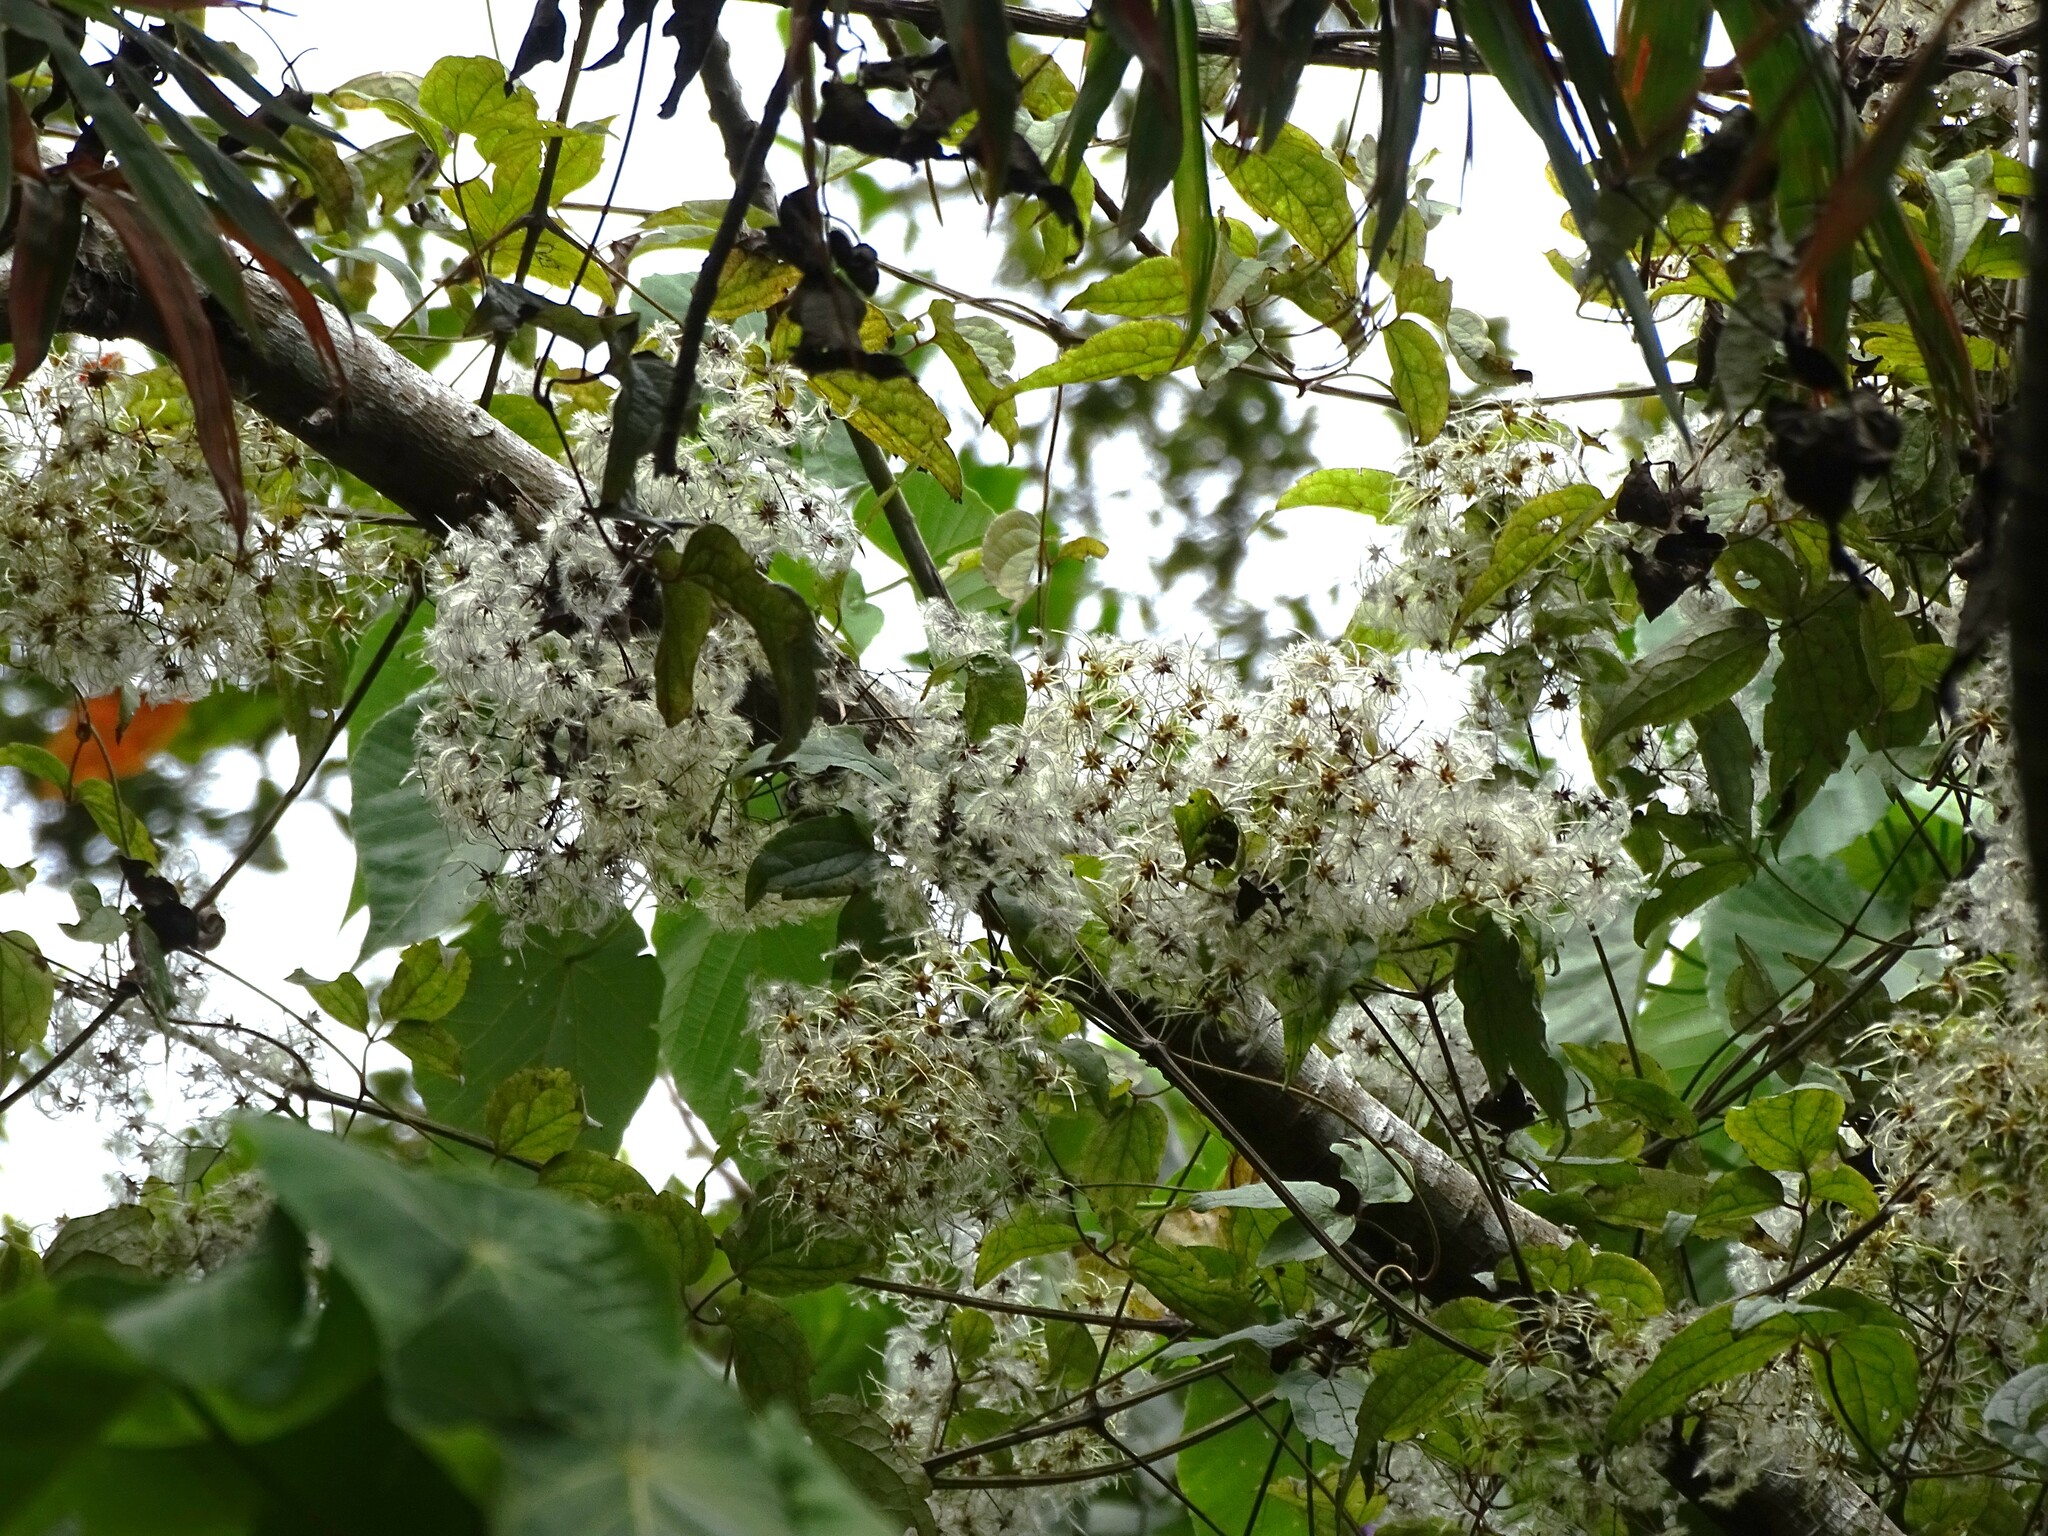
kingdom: Plantae
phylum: Tracheophyta
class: Magnoliopsida
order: Ranunculales
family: Ranunculaceae
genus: Clematis
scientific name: Clematis grata
